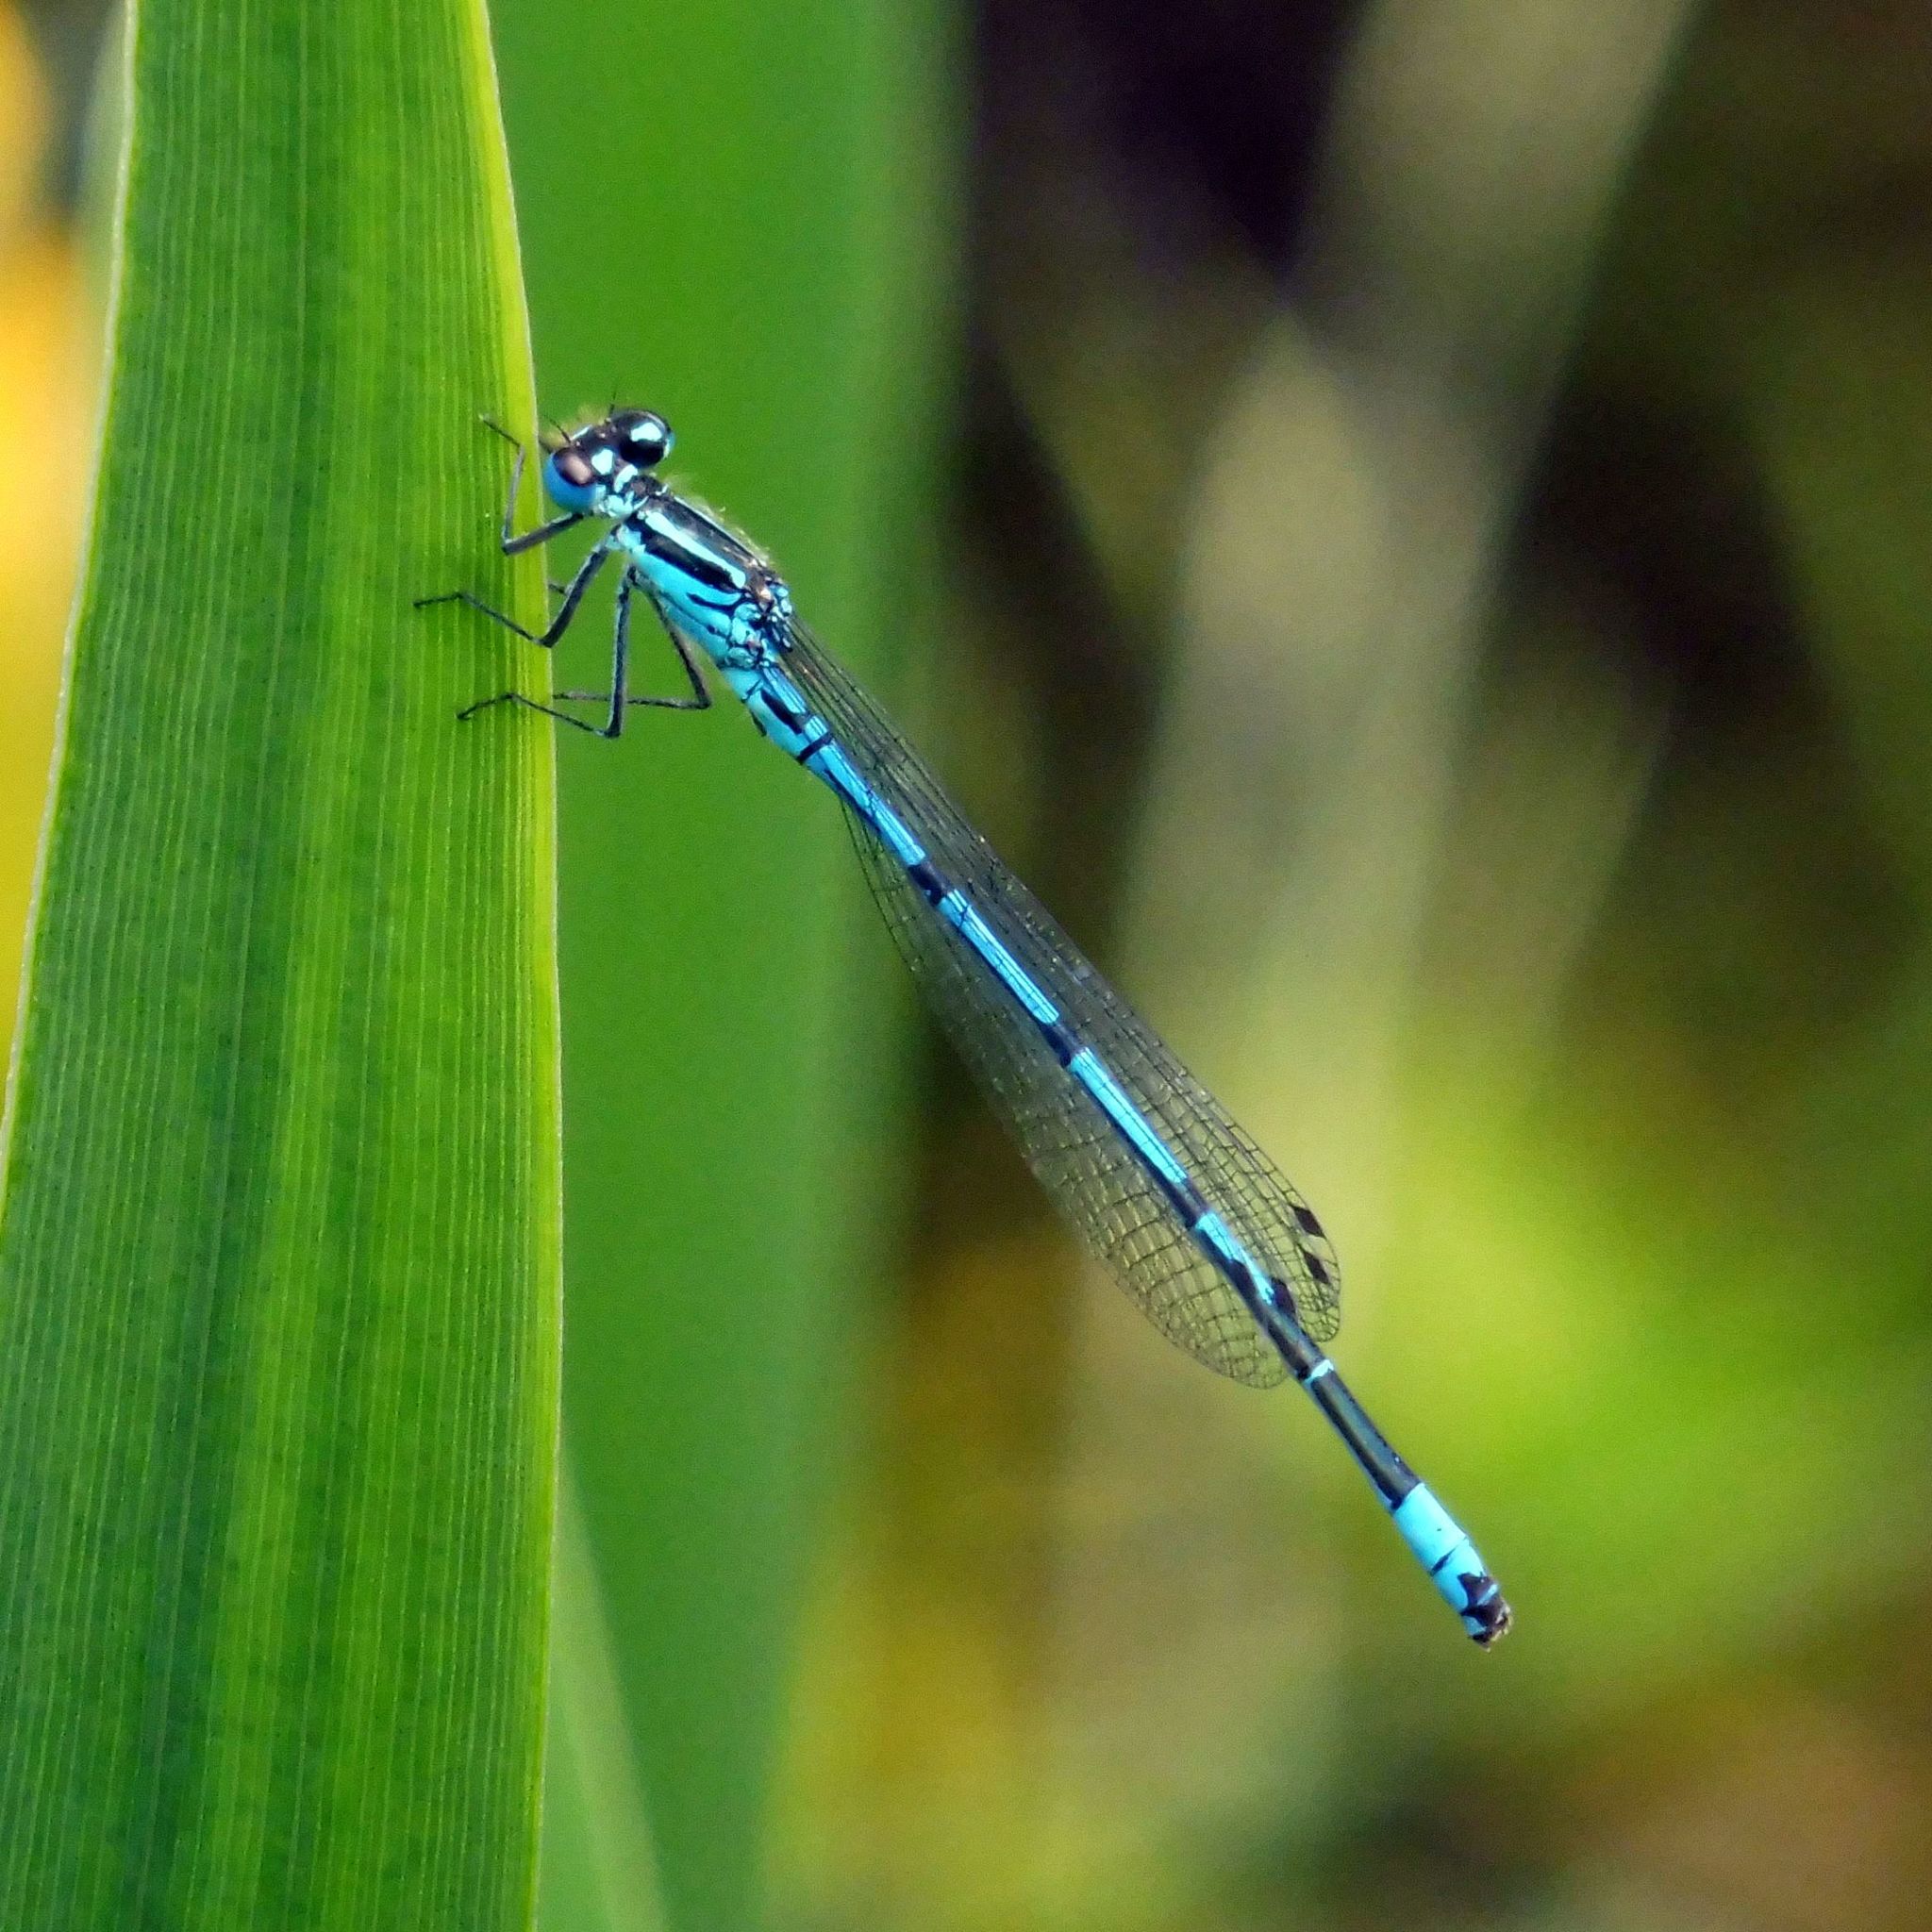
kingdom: Animalia
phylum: Arthropoda
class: Insecta
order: Odonata
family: Coenagrionidae
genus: Coenagrion
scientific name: Coenagrion puella
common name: Azure damselfly
